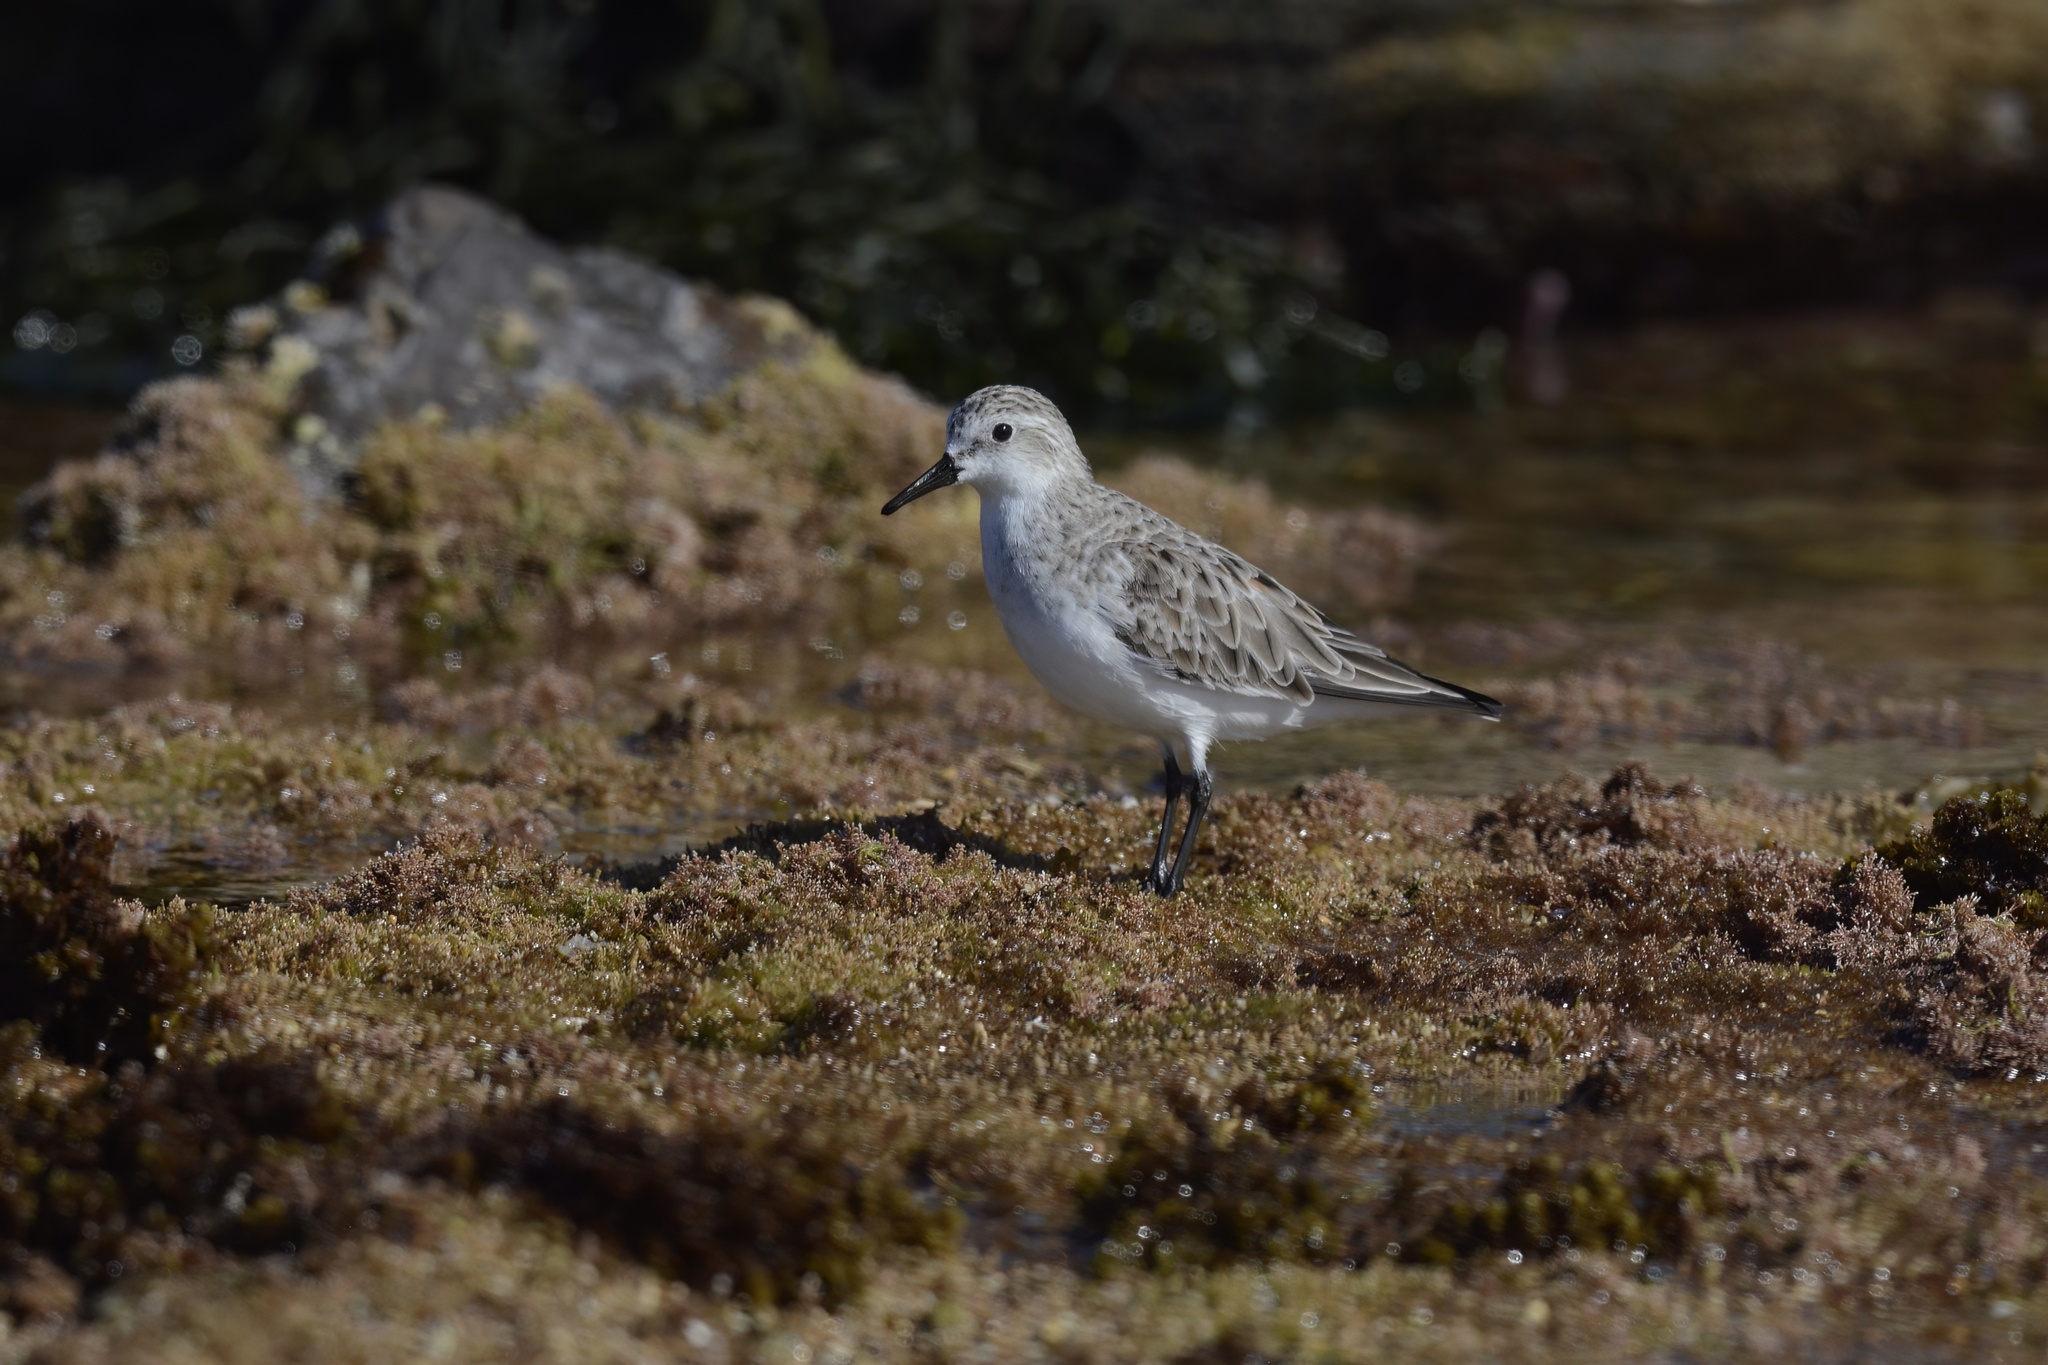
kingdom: Animalia
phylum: Chordata
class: Aves
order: Charadriiformes
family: Scolopacidae
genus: Calidris
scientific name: Calidris ruficollis
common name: Red-necked stint
